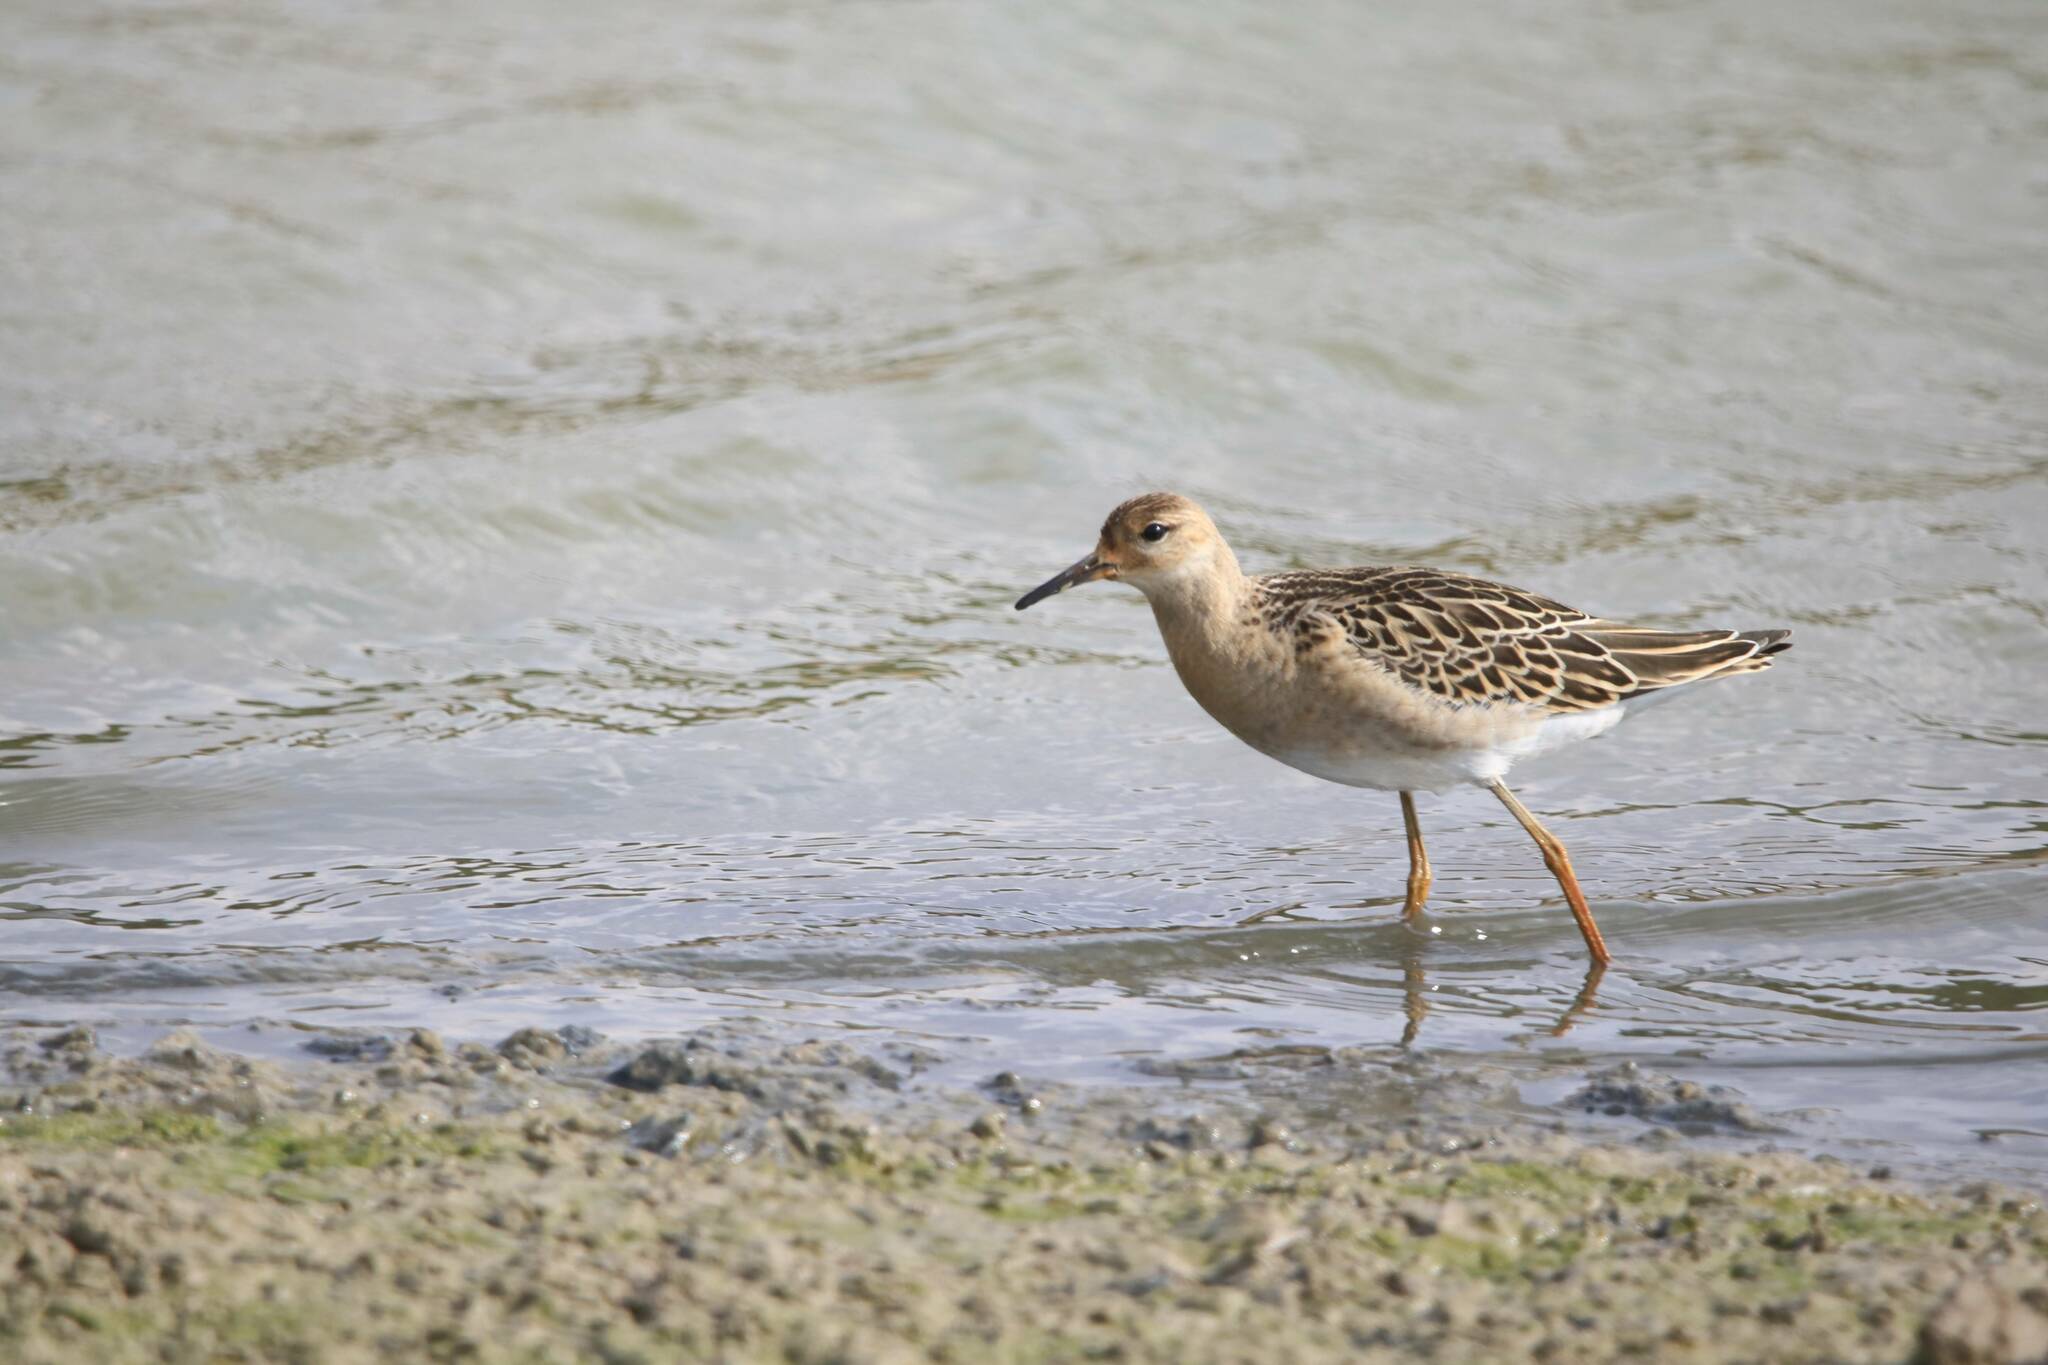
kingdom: Animalia
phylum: Chordata
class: Aves
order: Charadriiformes
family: Scolopacidae
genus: Calidris
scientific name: Calidris pugnax
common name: Ruff
